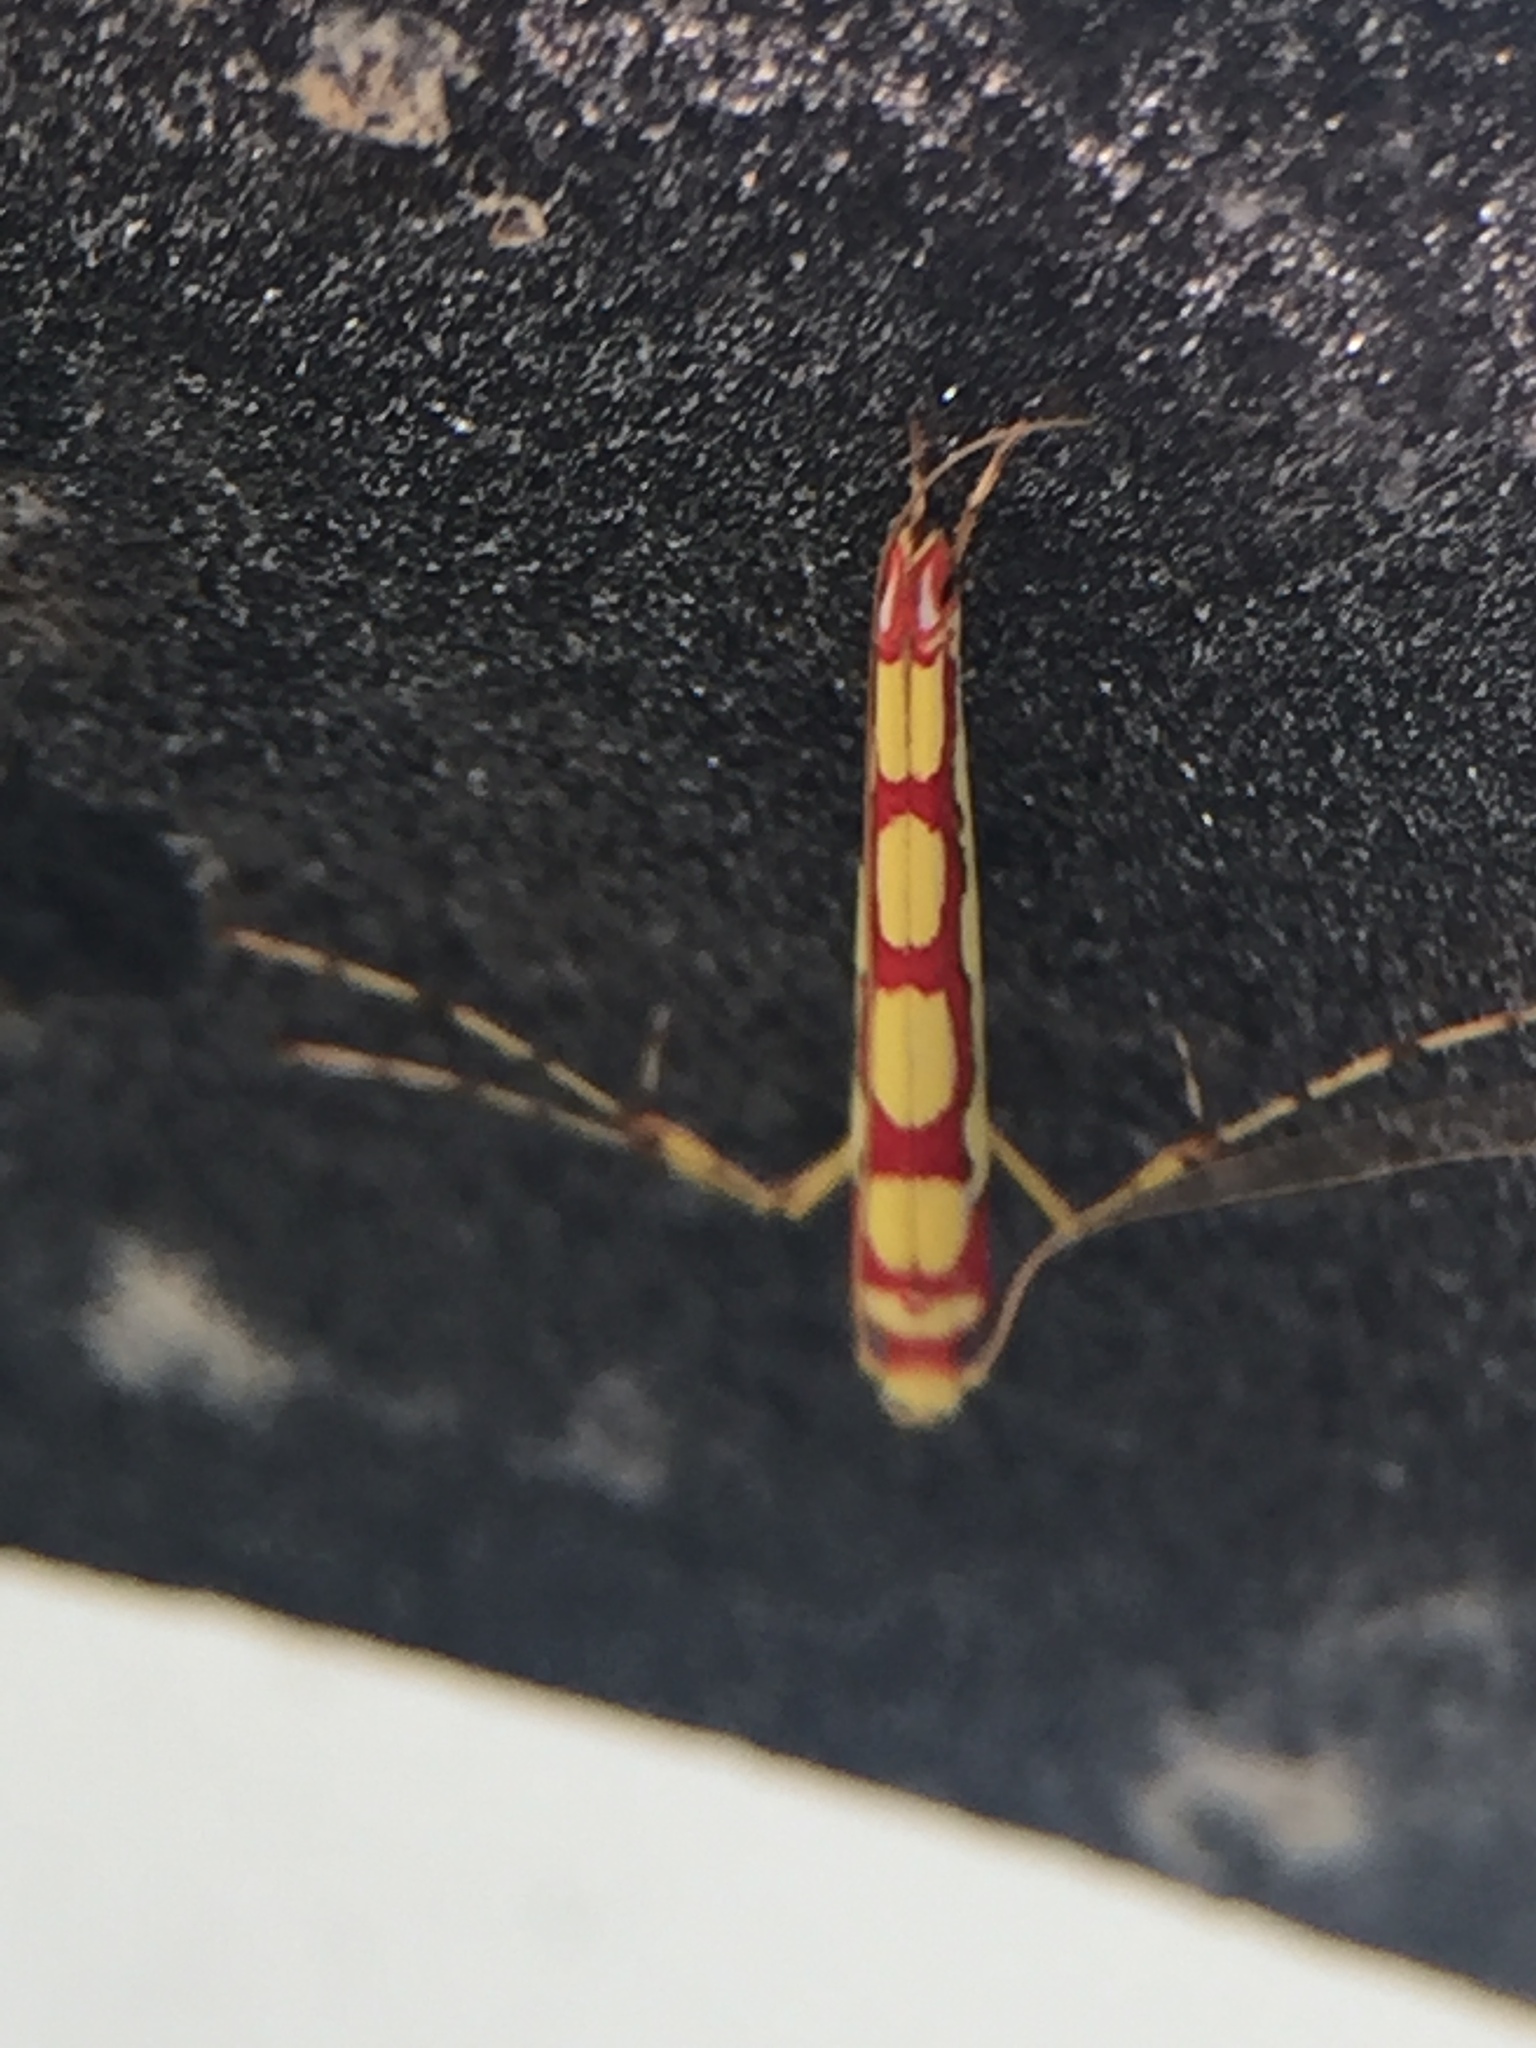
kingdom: Animalia
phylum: Arthropoda
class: Insecta
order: Lepidoptera
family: Gracillariidae
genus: Macarostola
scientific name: Macarostola miniella
